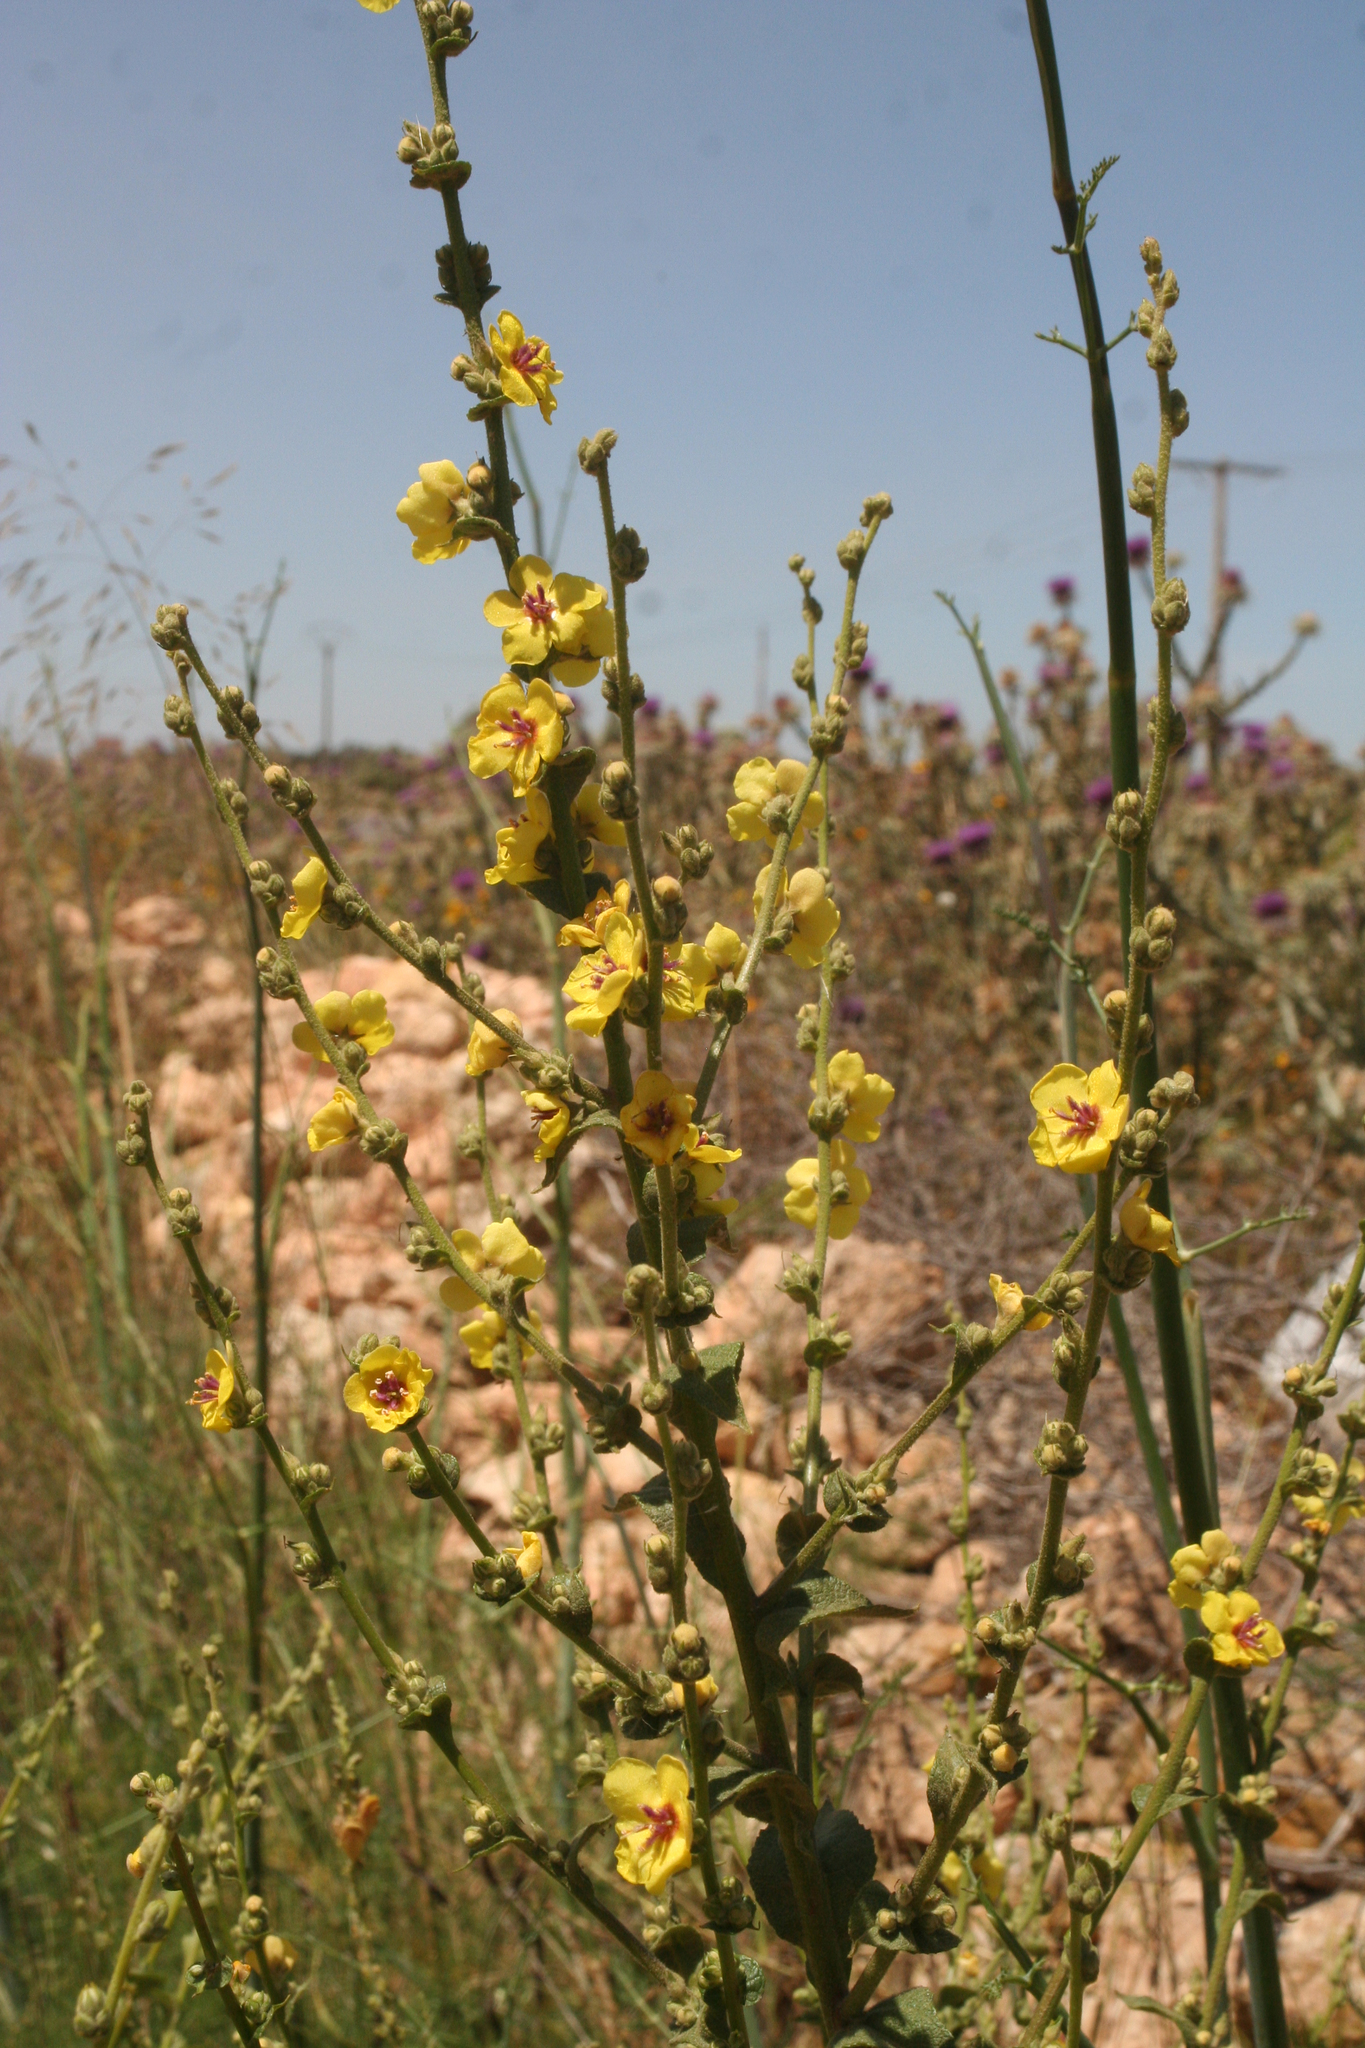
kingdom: Plantae
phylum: Tracheophyta
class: Magnoliopsida
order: Lamiales
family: Scrophulariaceae
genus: Verbascum
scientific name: Verbascum sinuatum
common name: Wavyleaf mullein
